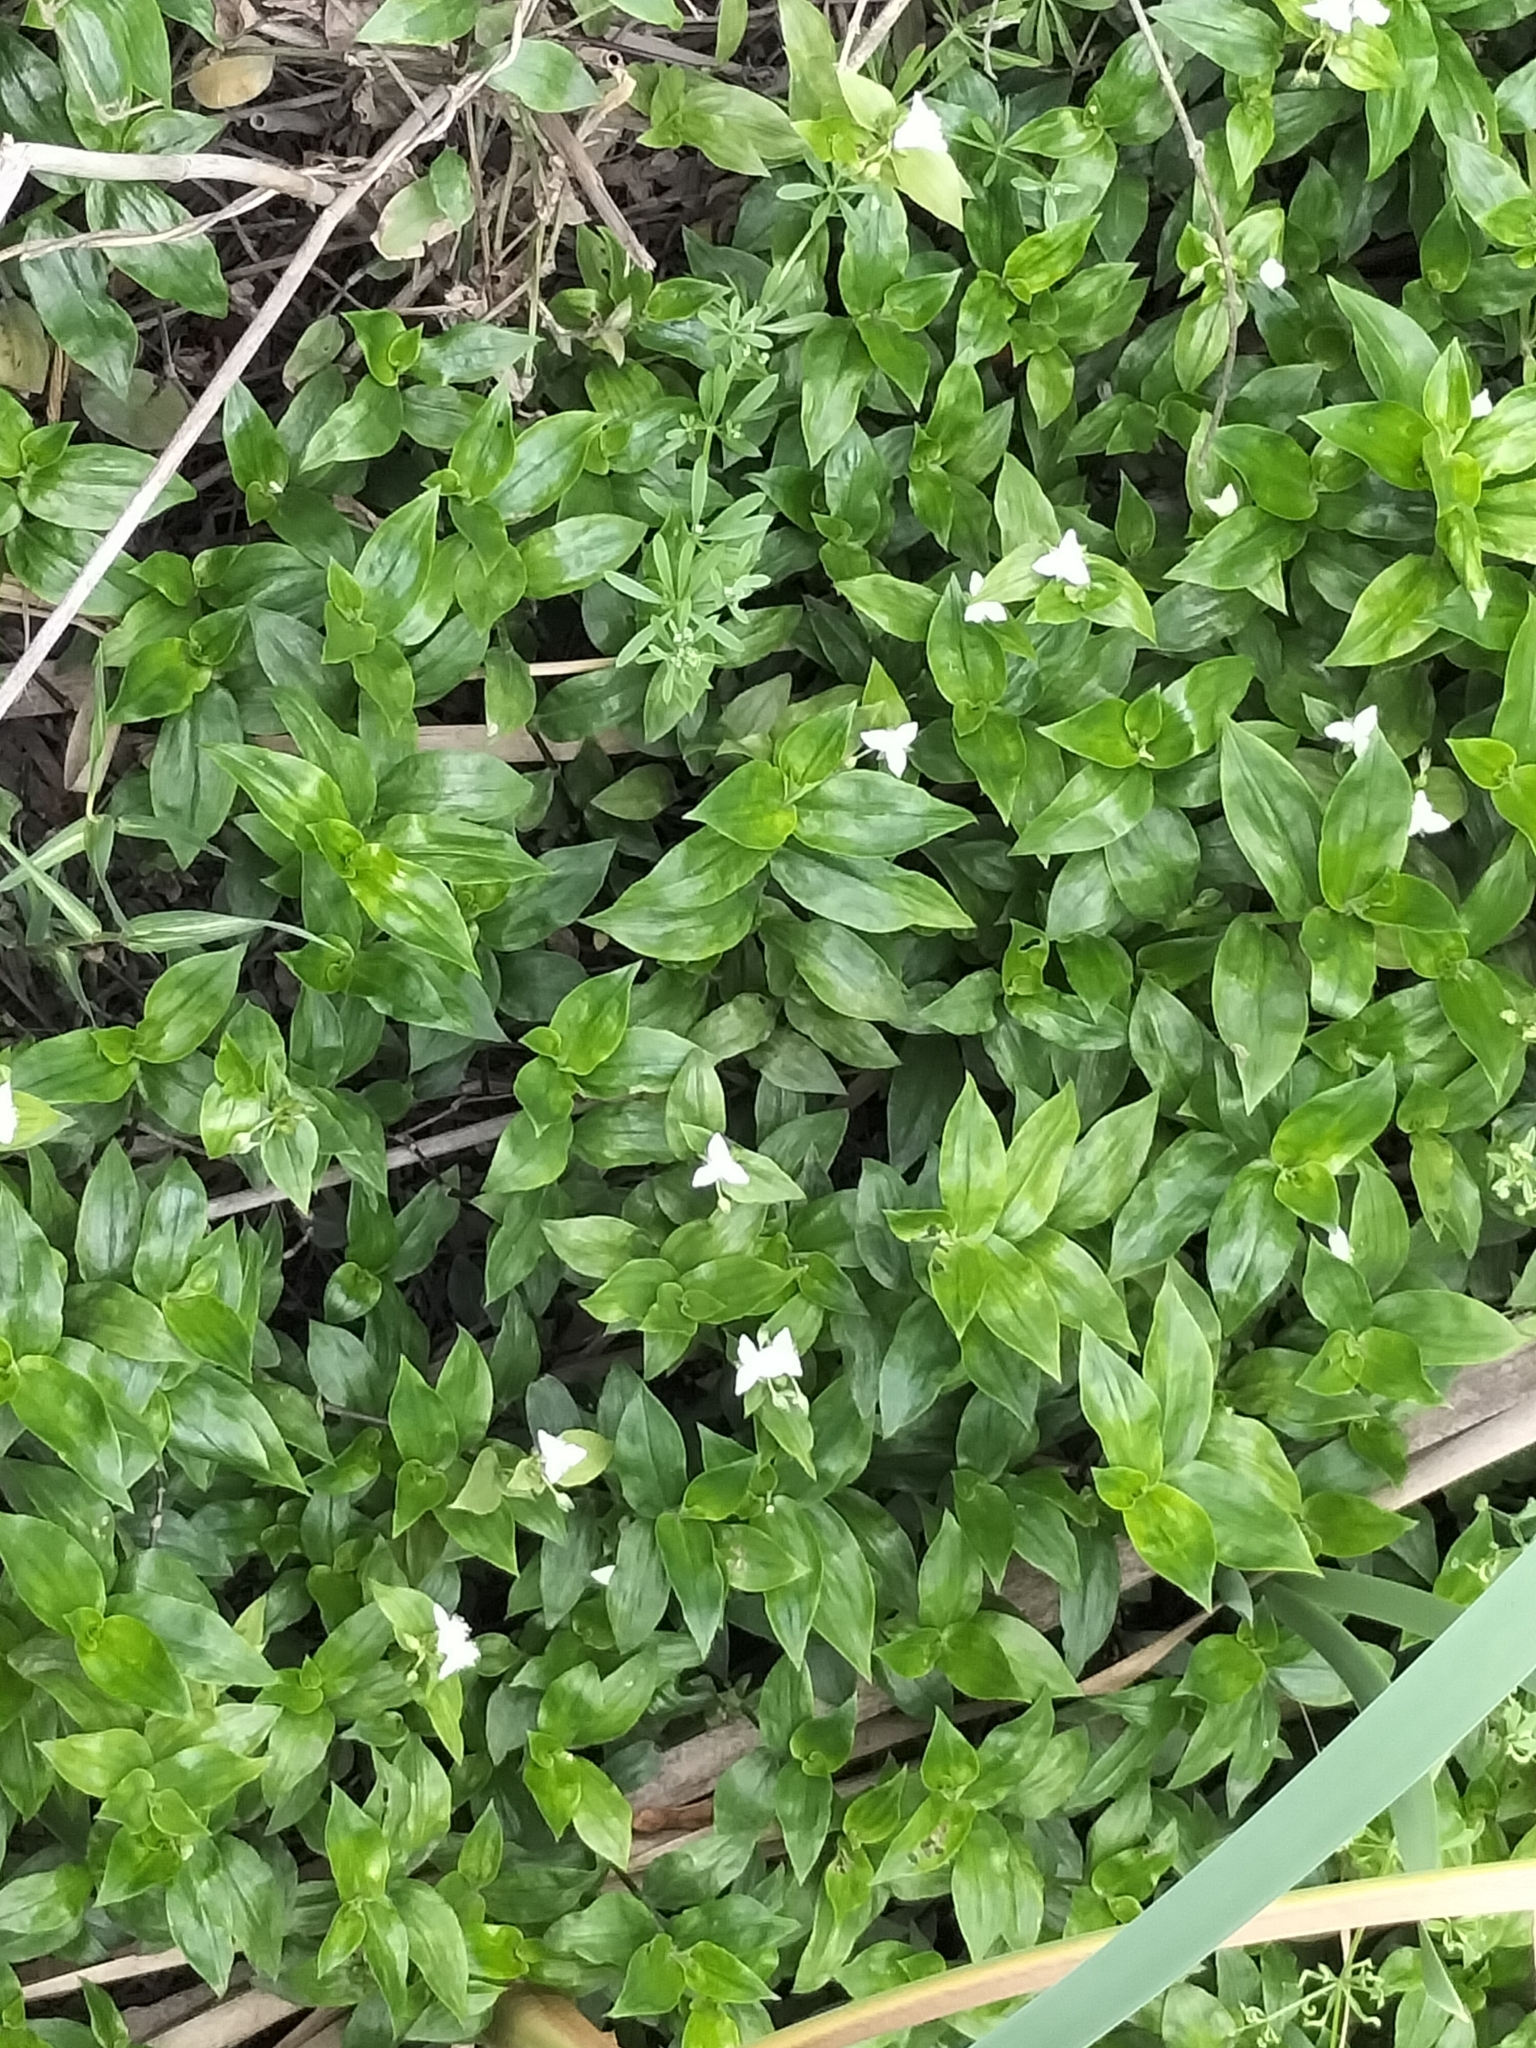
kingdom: Plantae
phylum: Tracheophyta
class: Liliopsida
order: Commelinales
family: Commelinaceae
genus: Tradescantia
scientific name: Tradescantia fluminensis
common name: Wandering-jew
